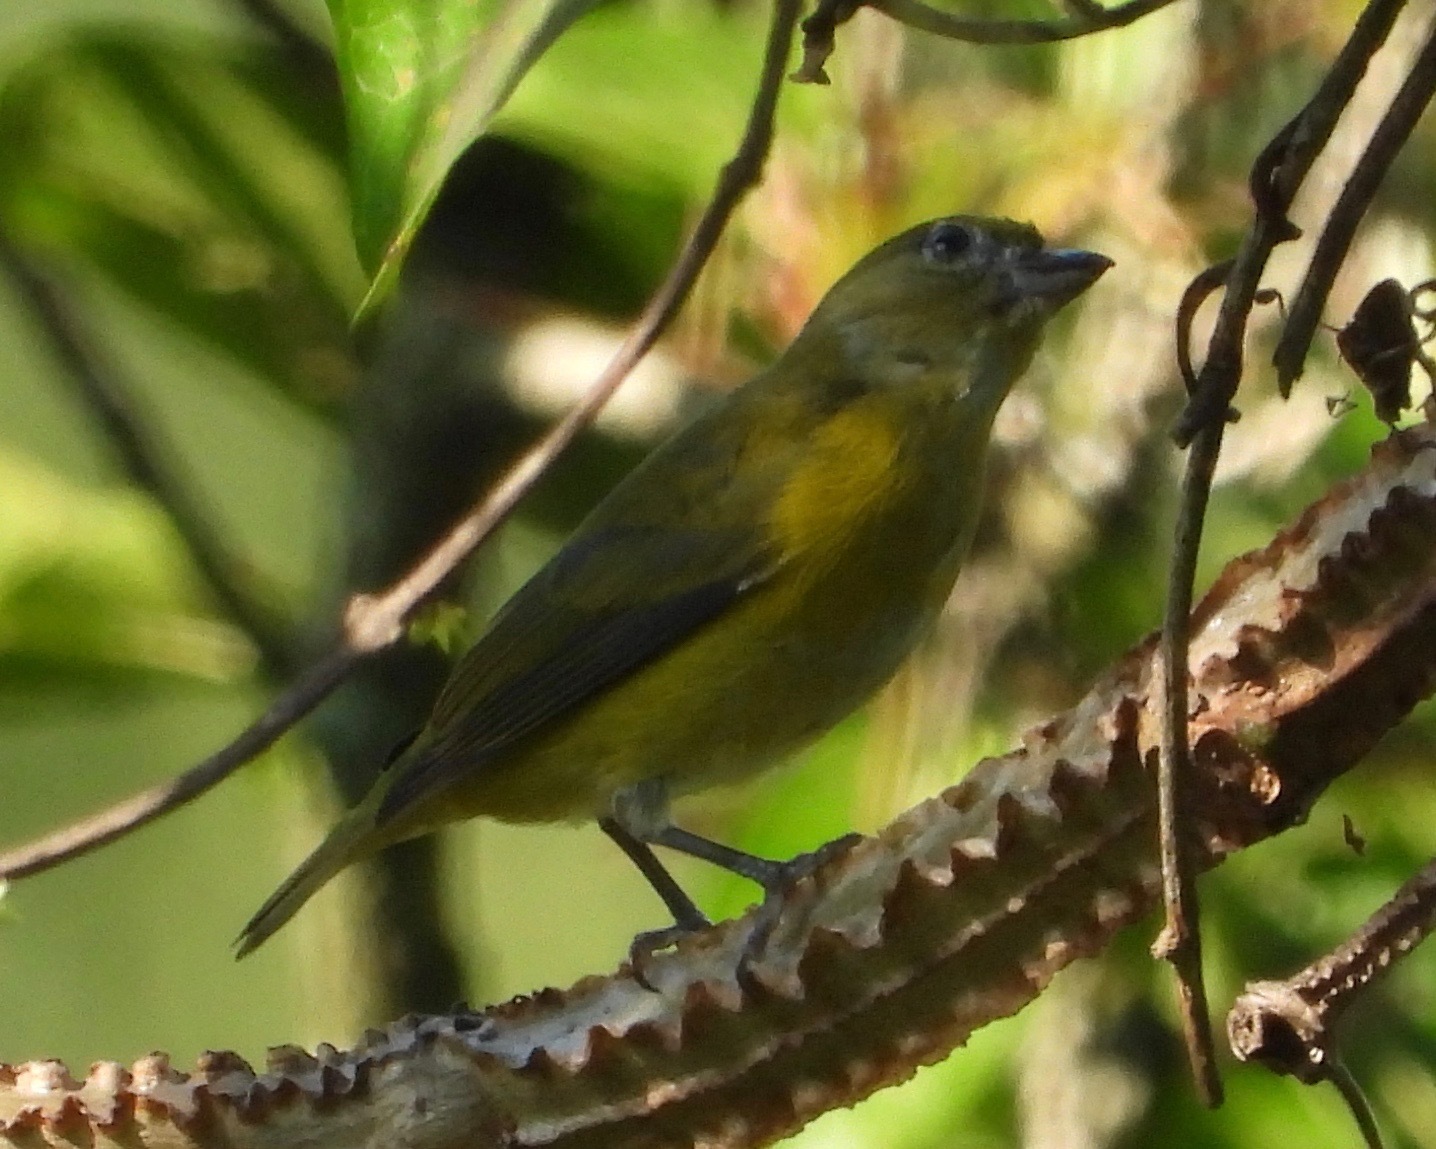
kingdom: Animalia
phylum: Chordata
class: Aves
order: Passeriformes
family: Fringillidae
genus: Euphonia
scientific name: Euphonia hirundinacea
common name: Yellow-throated euphonia
